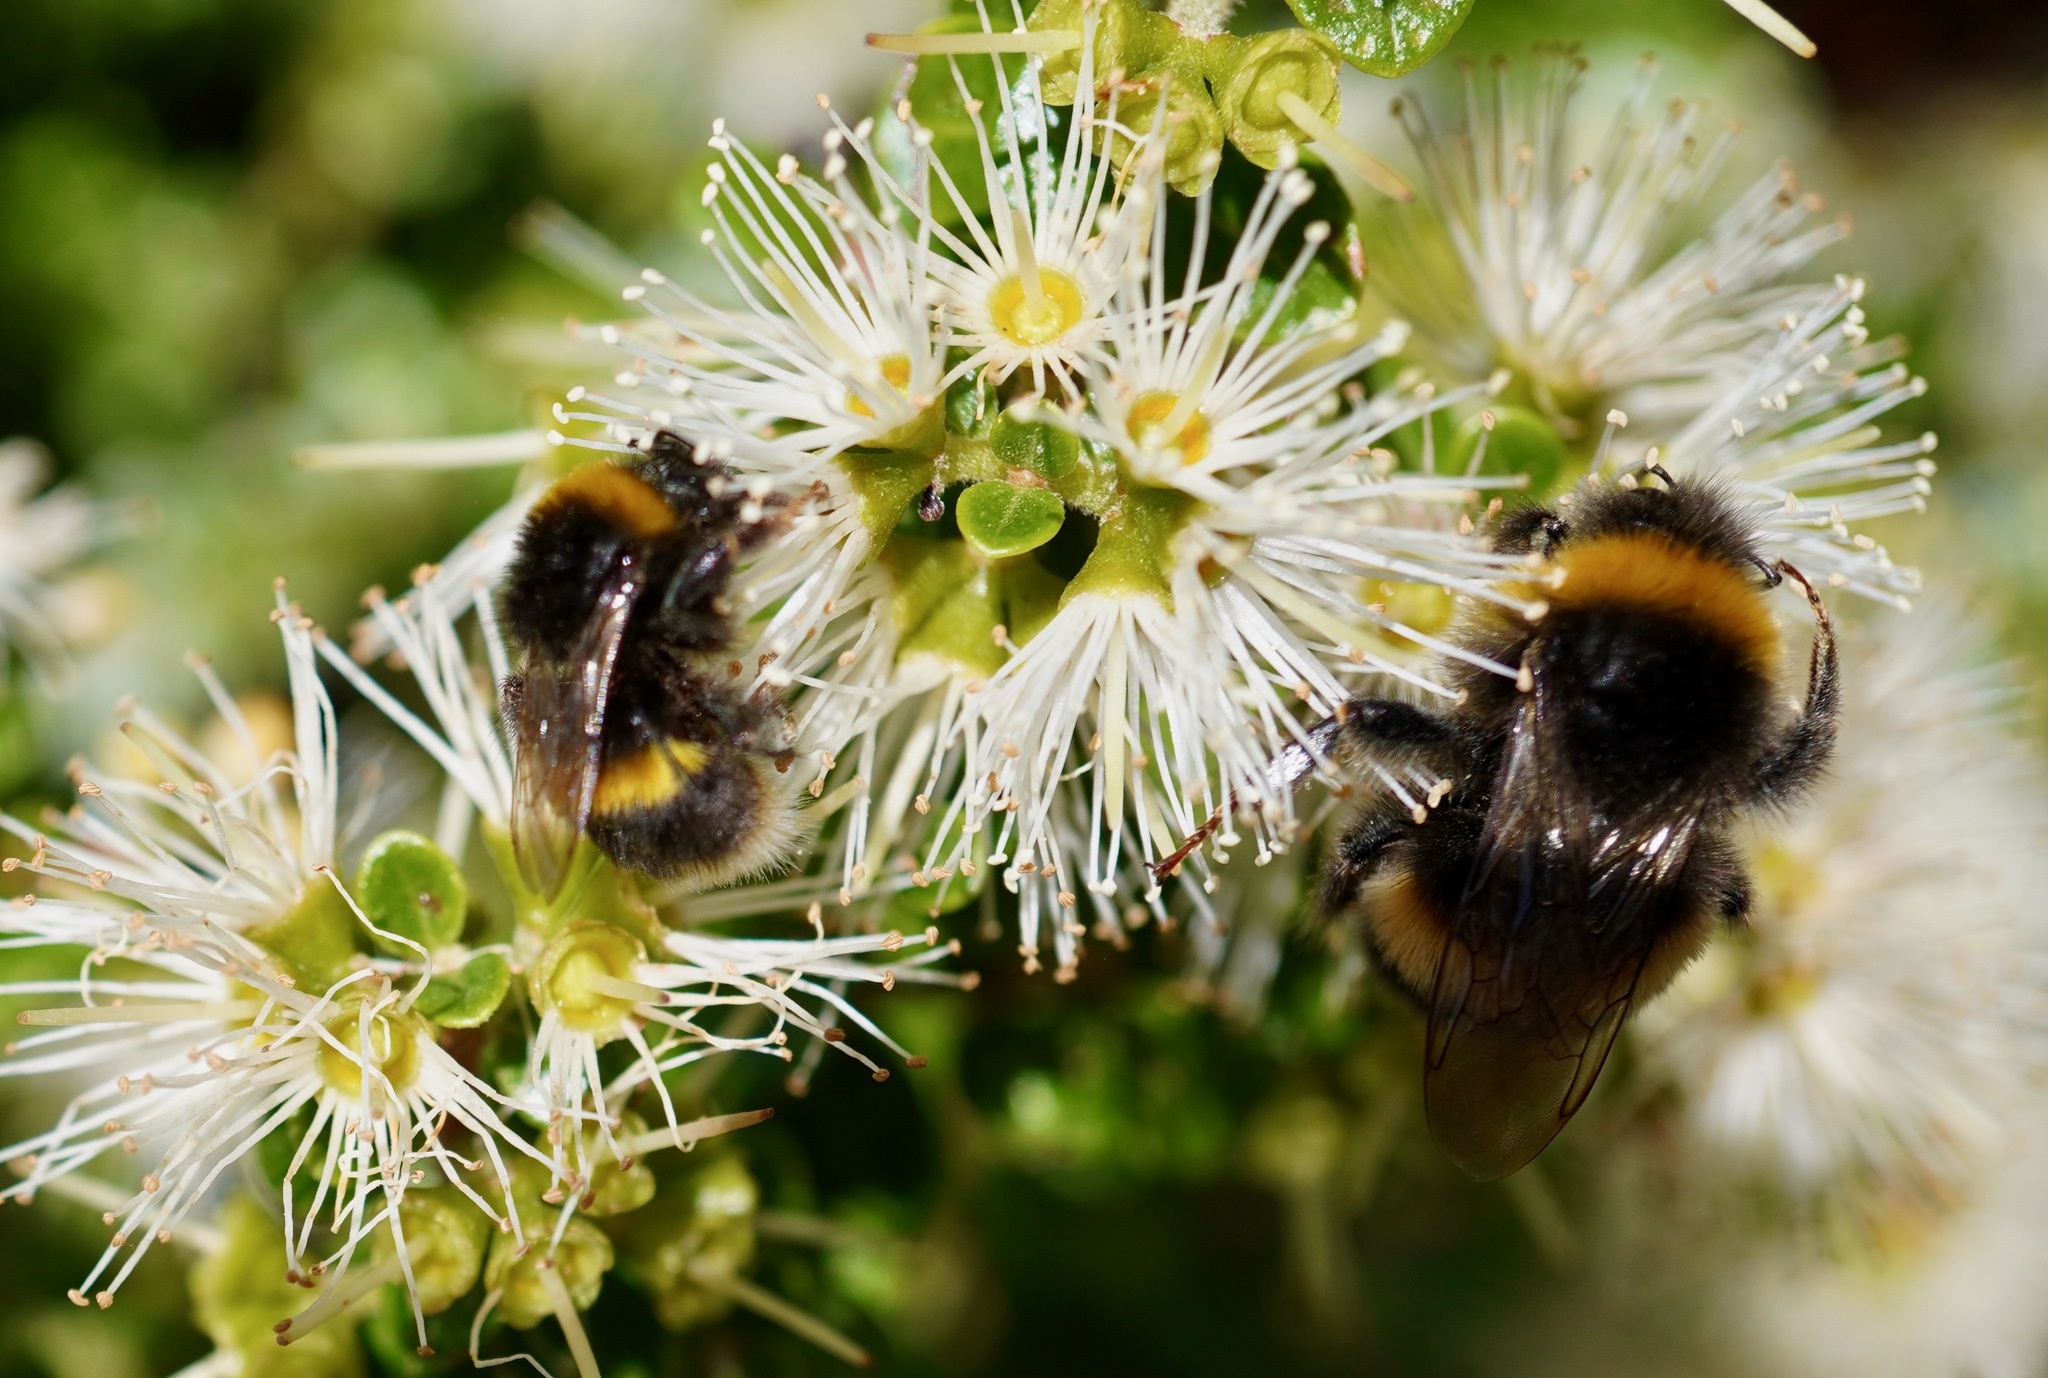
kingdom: Animalia
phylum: Arthropoda
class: Insecta
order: Hymenoptera
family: Apidae
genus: Bombus
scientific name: Bombus terrestris
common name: Buff-tailed bumblebee
